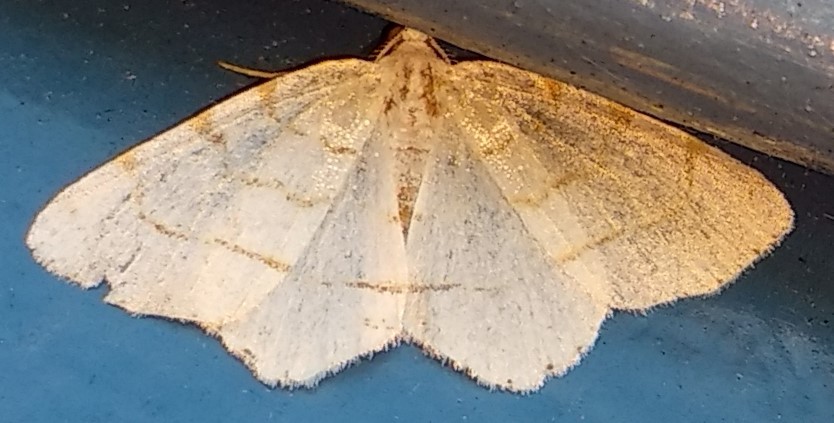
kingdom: Animalia
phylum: Arthropoda
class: Insecta
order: Lepidoptera
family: Geometridae
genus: Macaria
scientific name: Macaria pustularia
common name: Lesser maple spanworm moth
